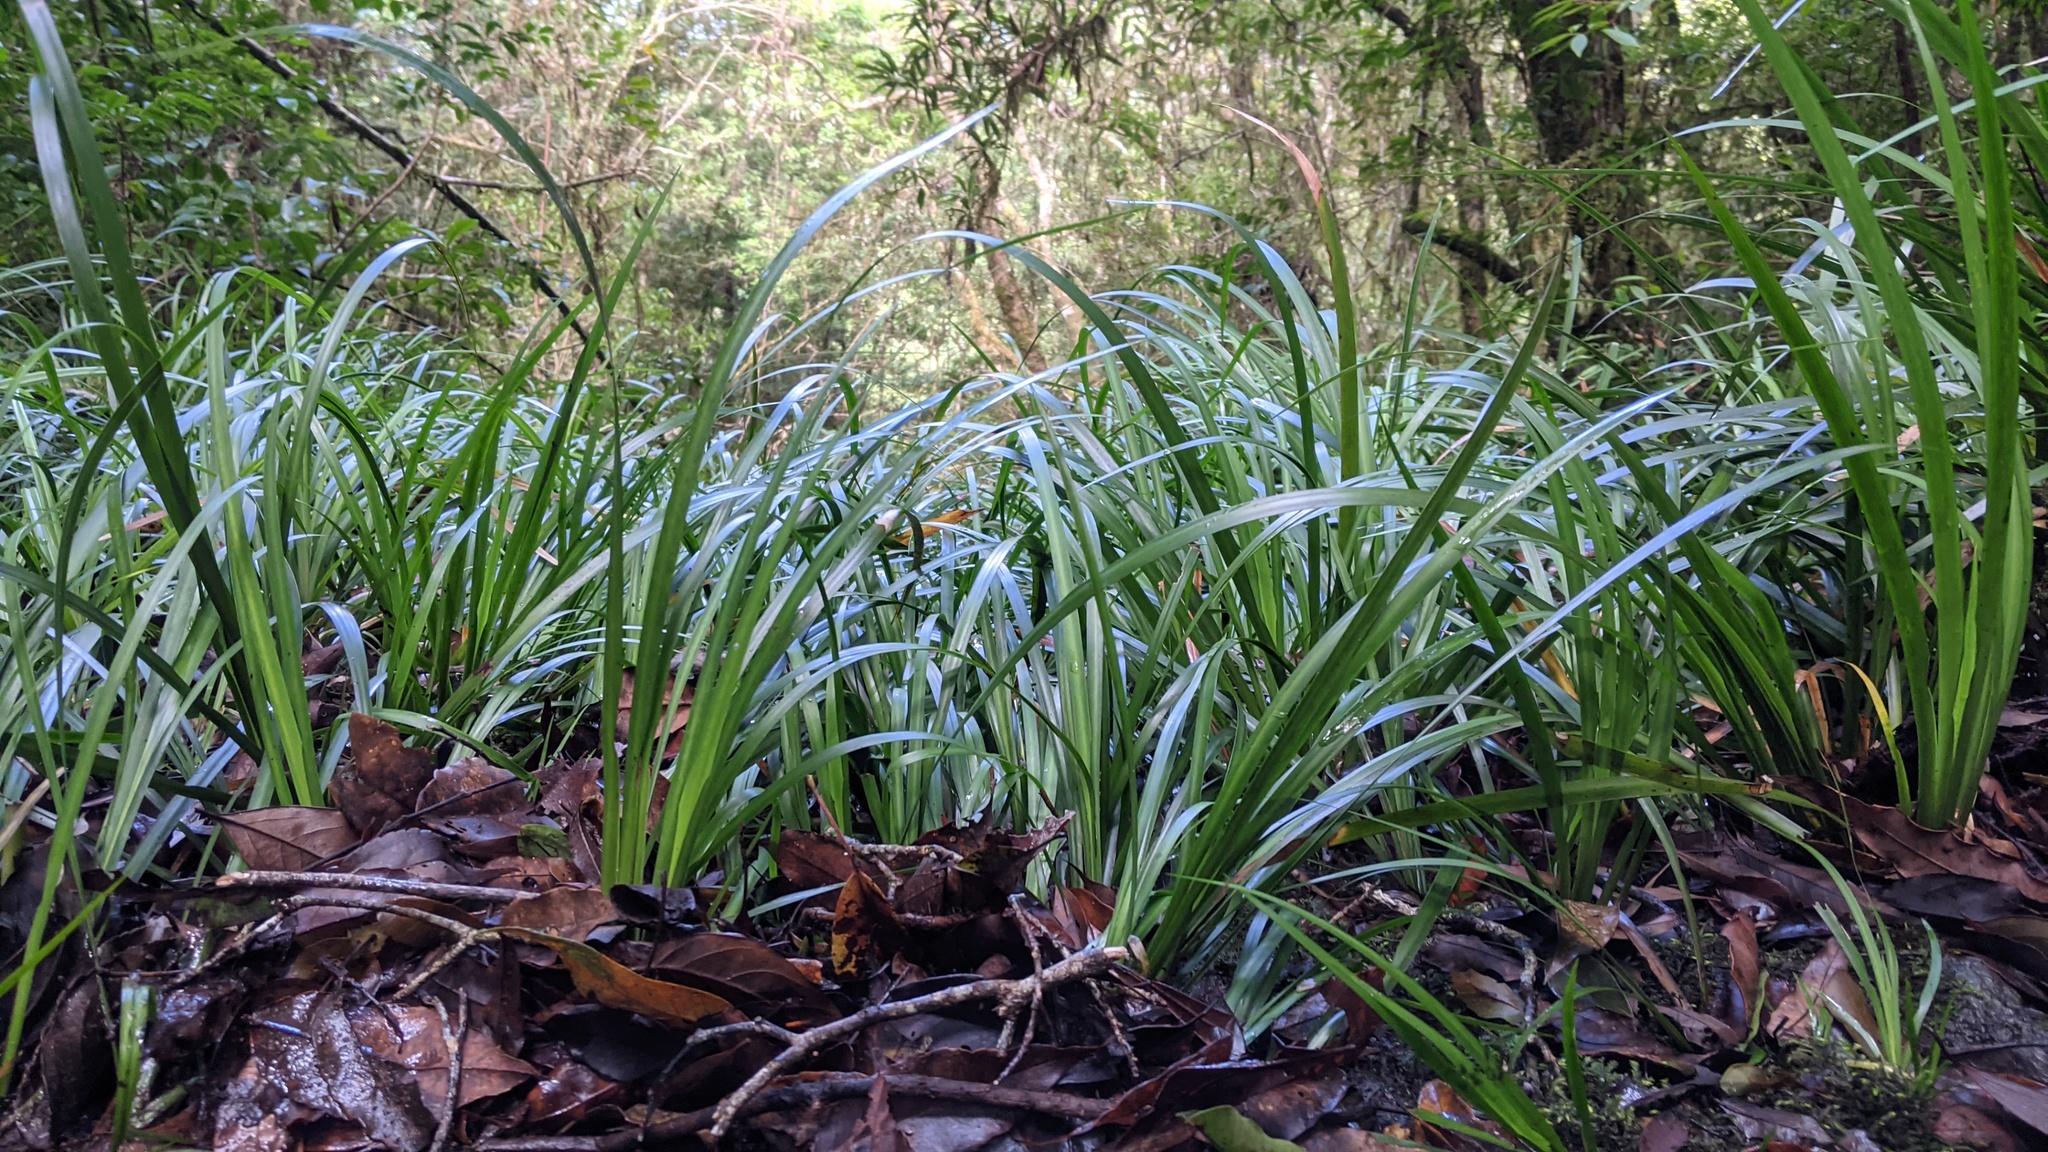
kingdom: Plantae
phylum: Tracheophyta
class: Liliopsida
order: Acorales
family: Acoraceae
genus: Acorus
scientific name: Acorus gramineus
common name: Slender sweet-flag
